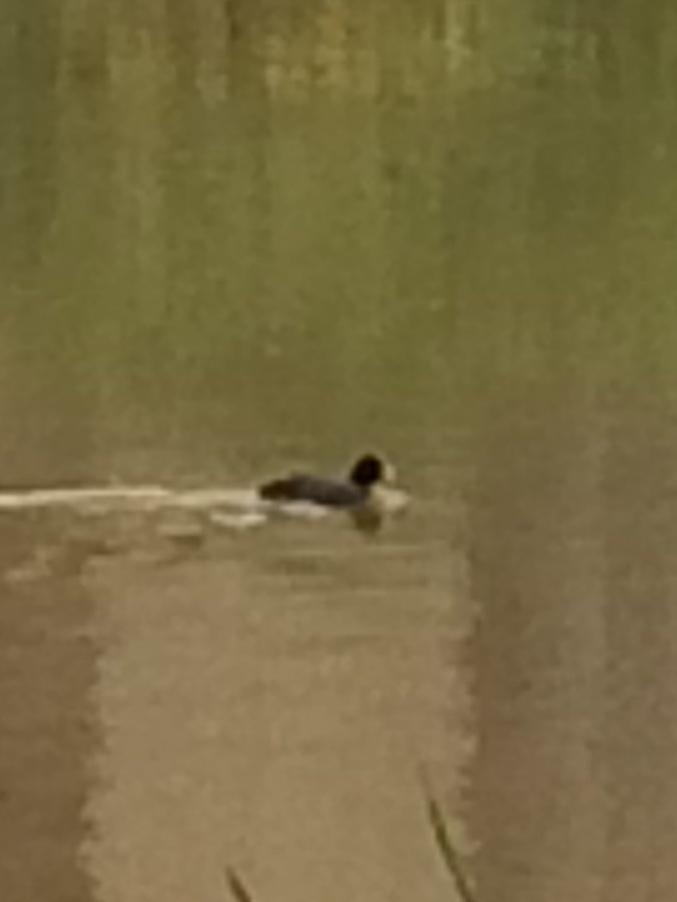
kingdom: Animalia
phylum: Chordata
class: Aves
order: Gruiformes
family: Rallidae
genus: Fulica
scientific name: Fulica atra
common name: Eurasian coot
